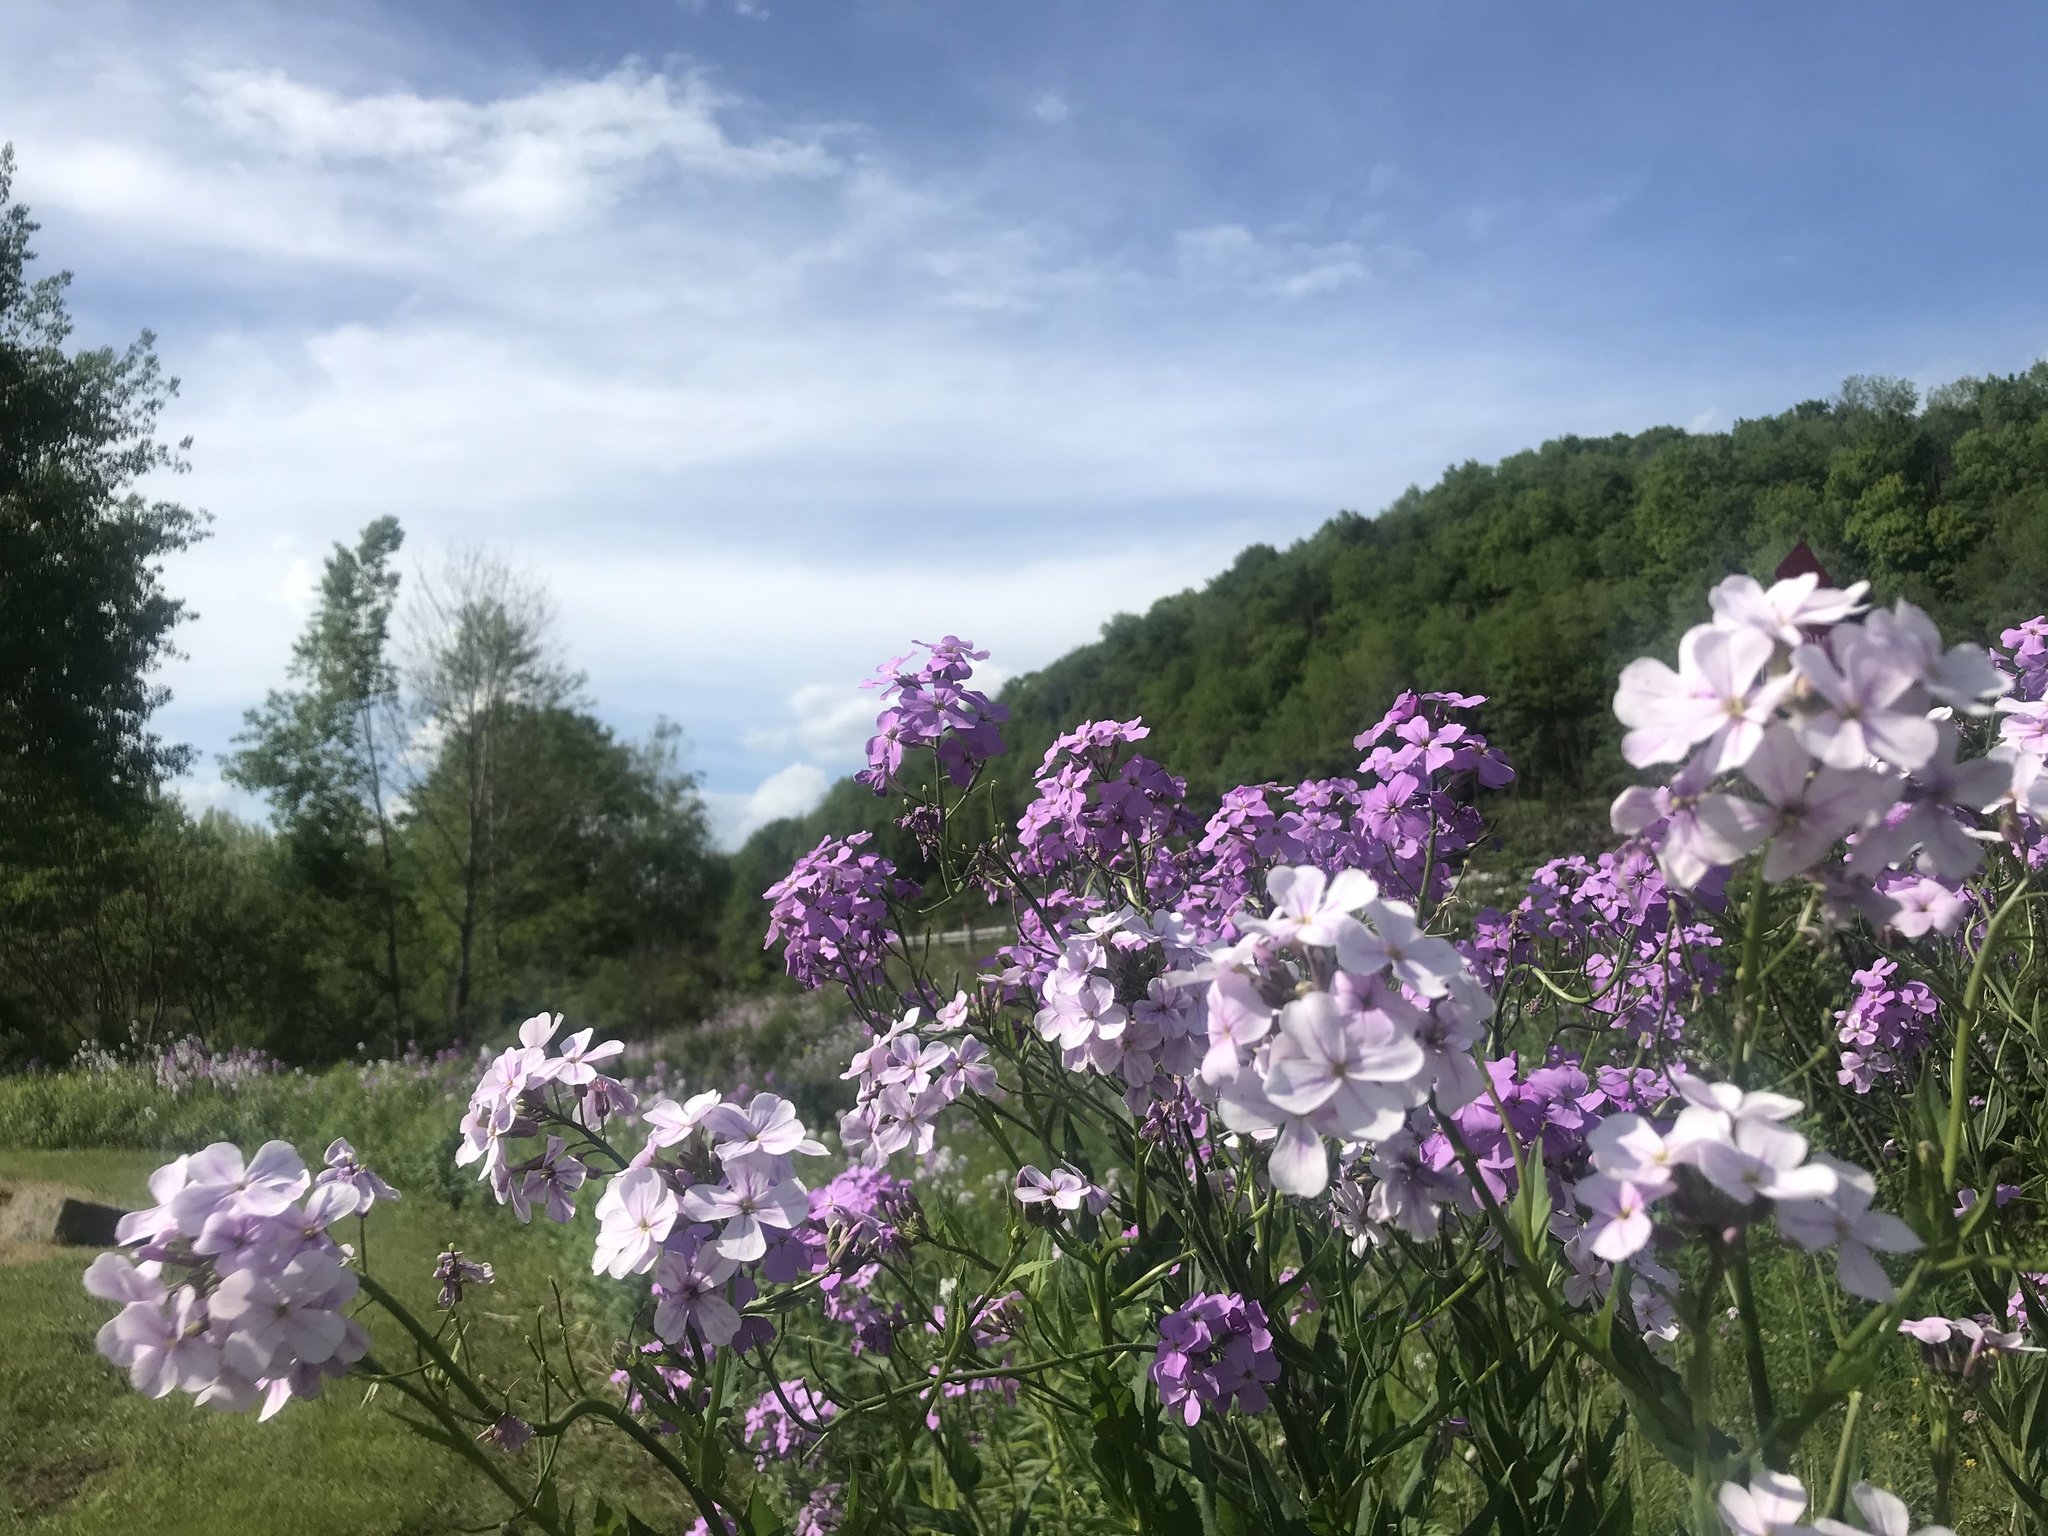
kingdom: Plantae
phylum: Tracheophyta
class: Magnoliopsida
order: Brassicales
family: Brassicaceae
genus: Hesperis
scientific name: Hesperis matronalis
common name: Dame's-violet
